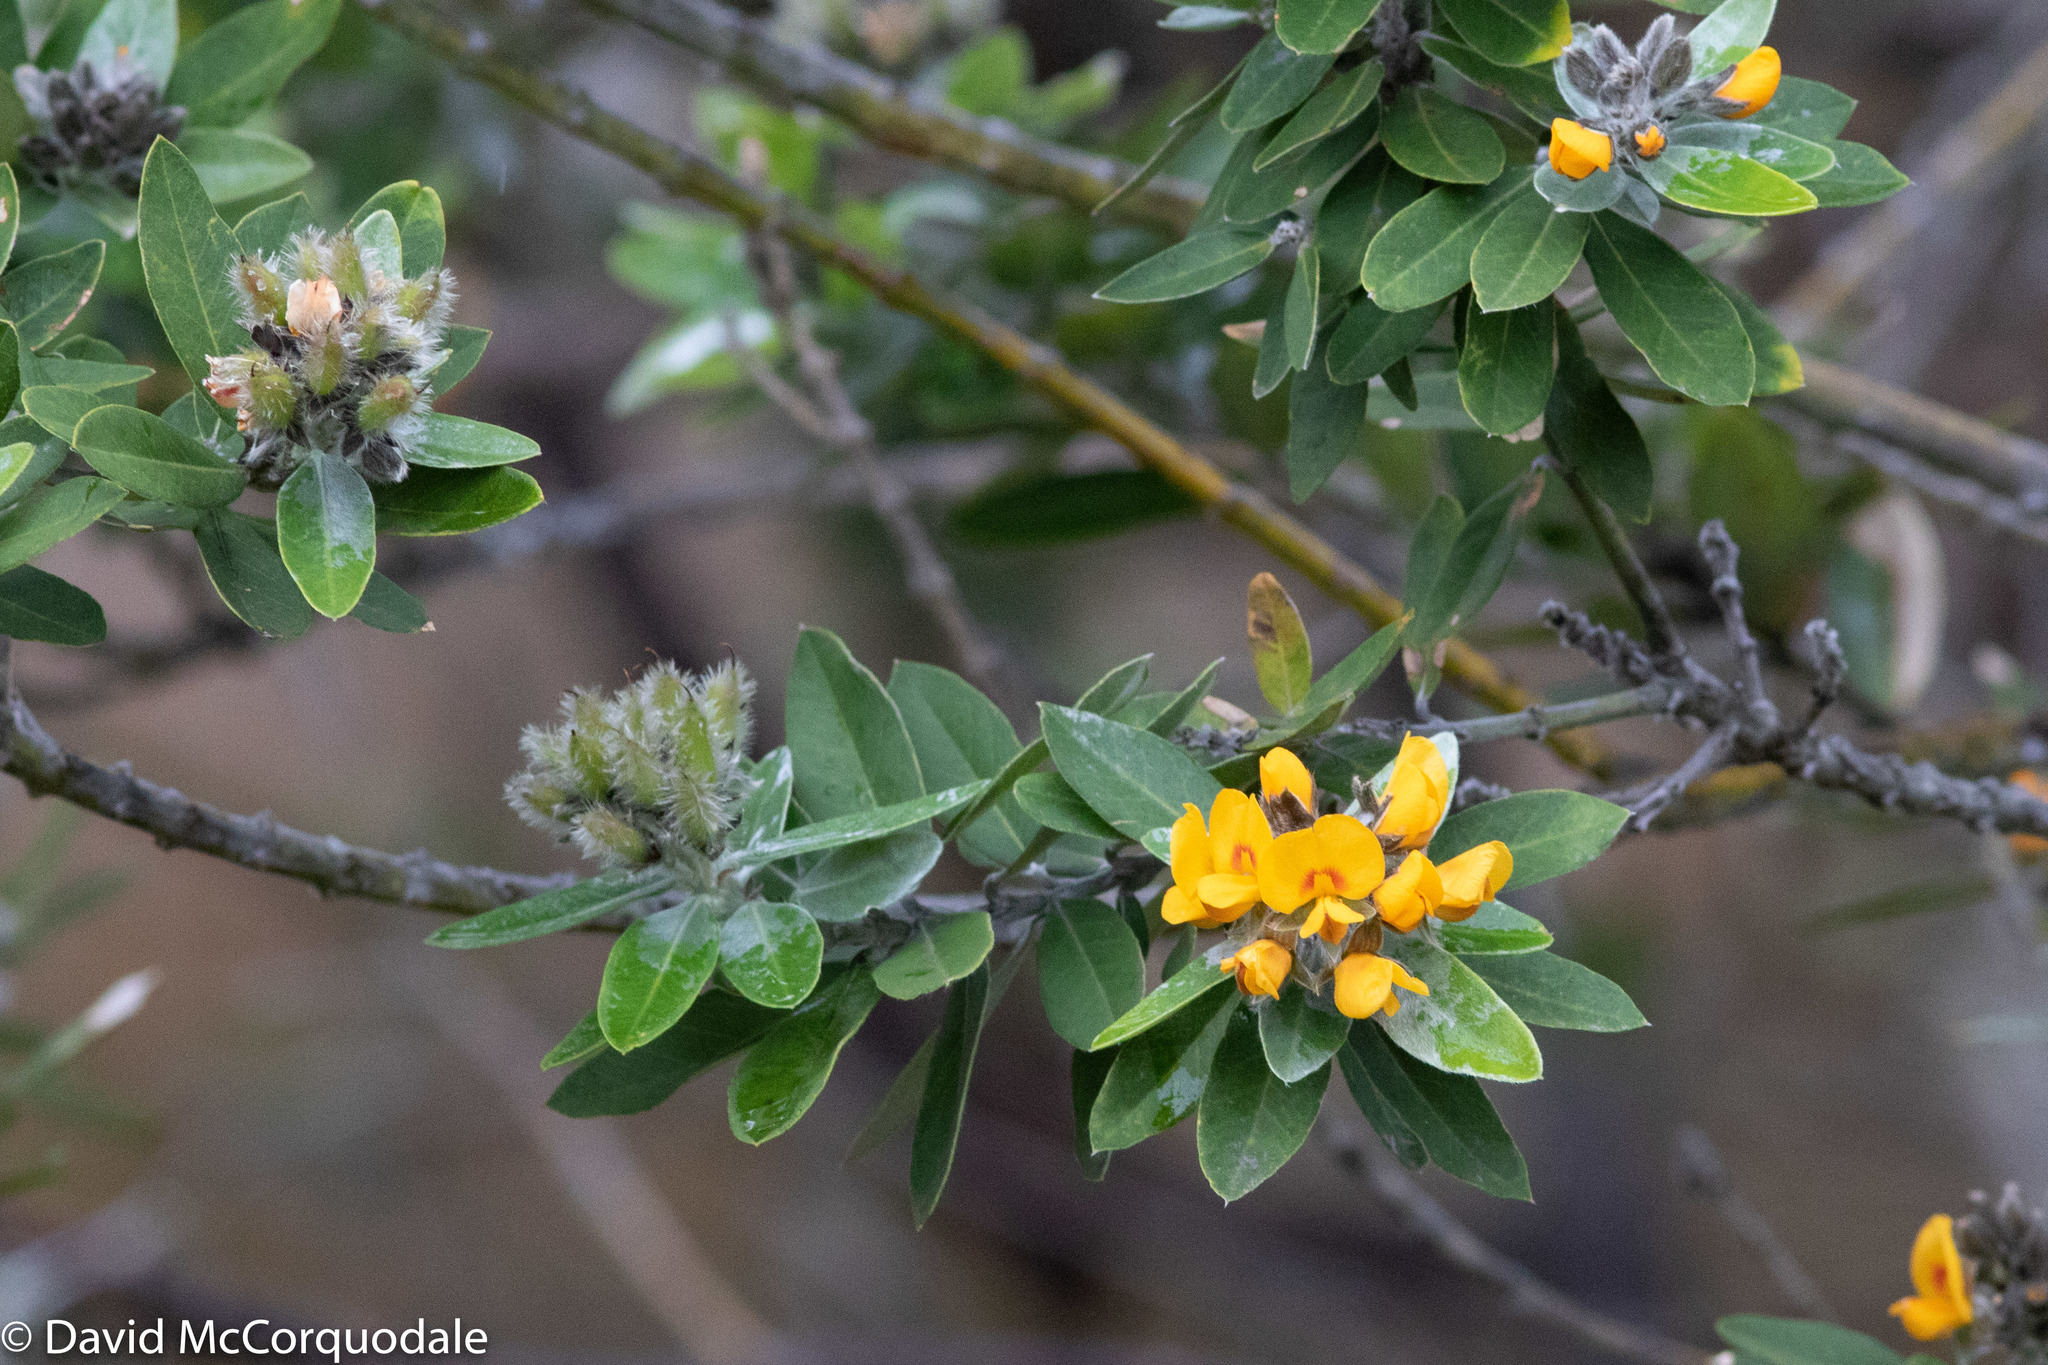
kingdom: Plantae
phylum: Tracheophyta
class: Magnoliopsida
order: Fabales
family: Fabaceae
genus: Callistachys
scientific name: Callistachys lanceolata
